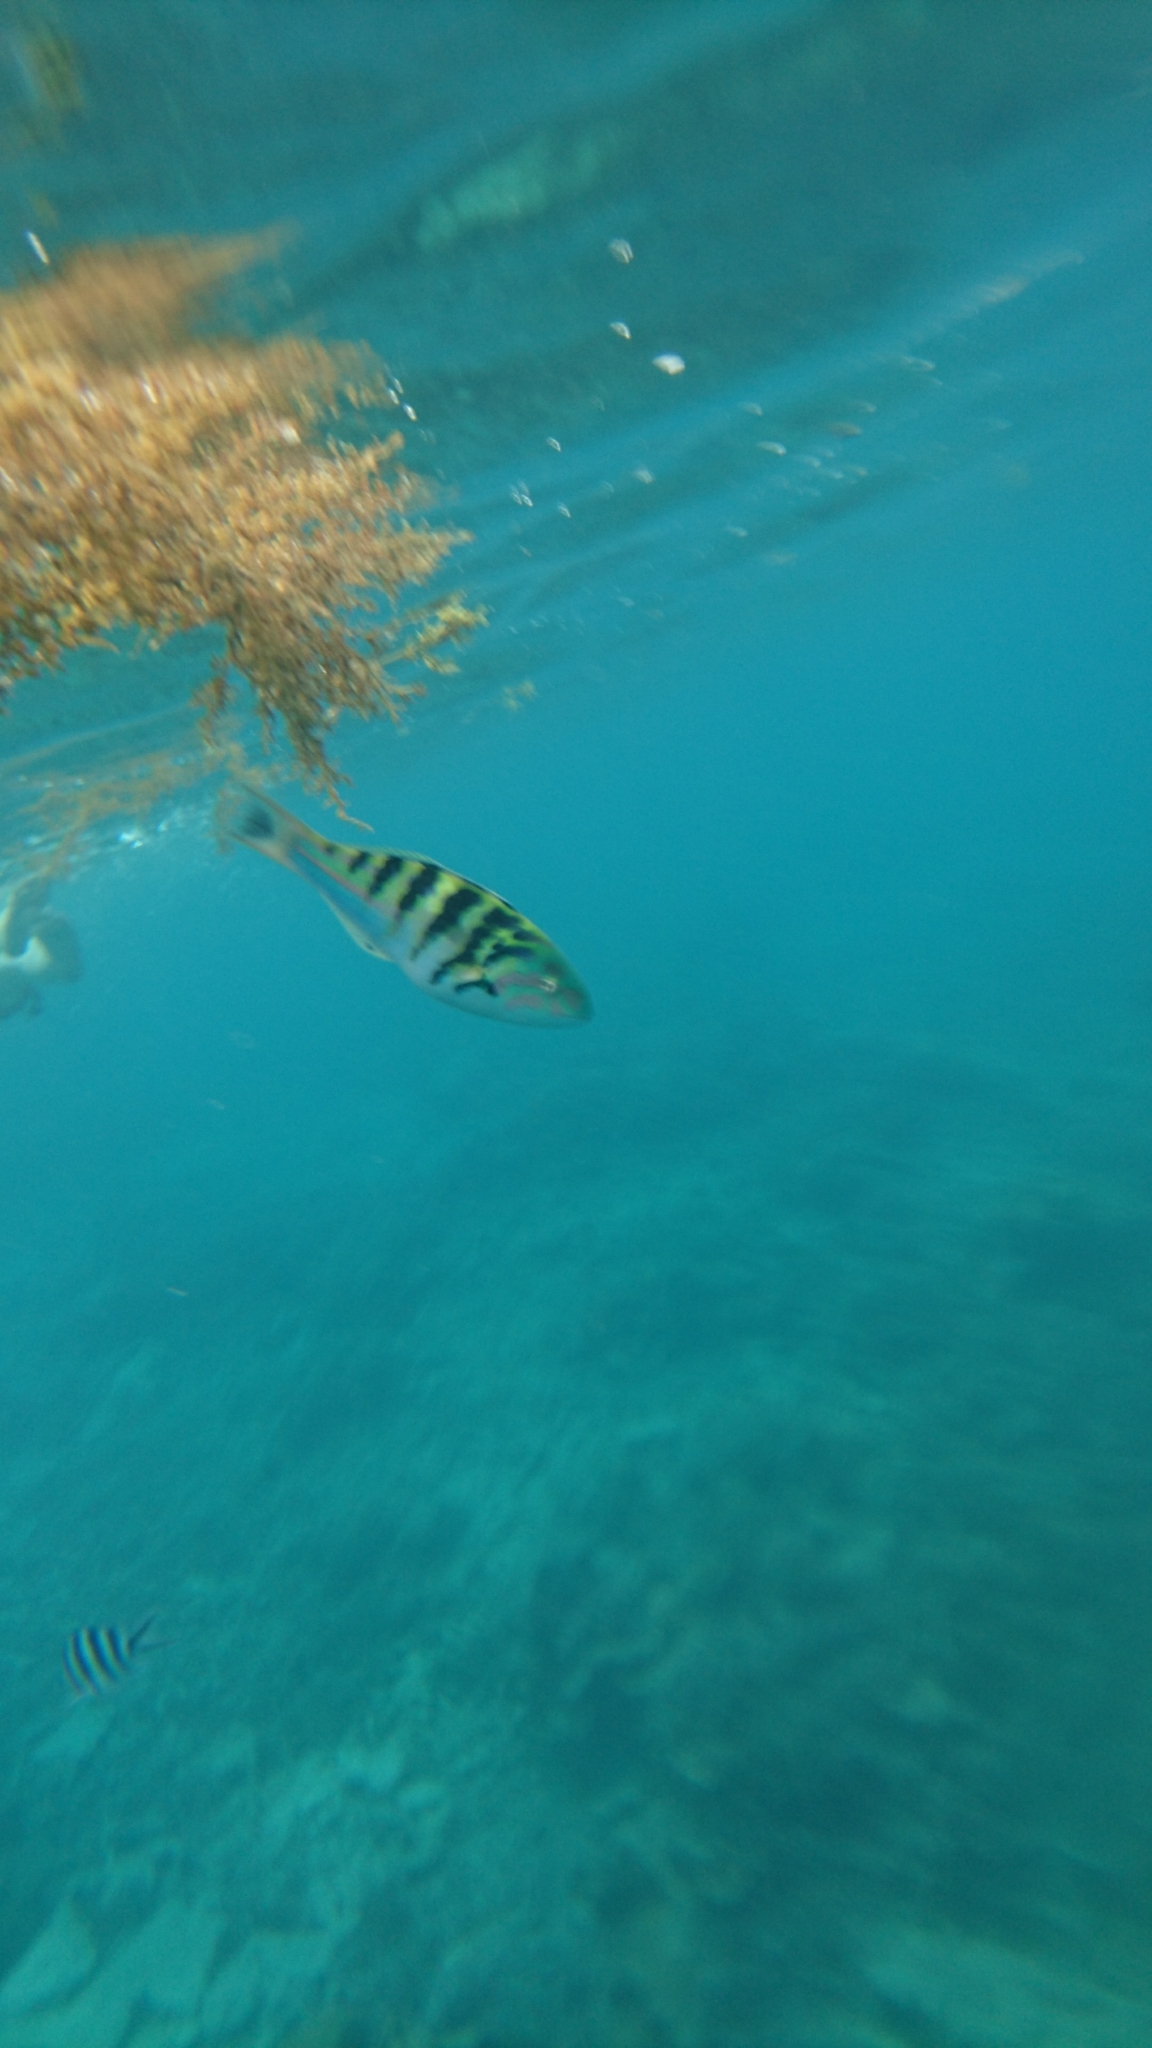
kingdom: Animalia
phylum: Chordata
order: Perciformes
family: Labridae
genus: Thalassoma
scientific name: Thalassoma hardwicke
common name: Sixbar wrasse
